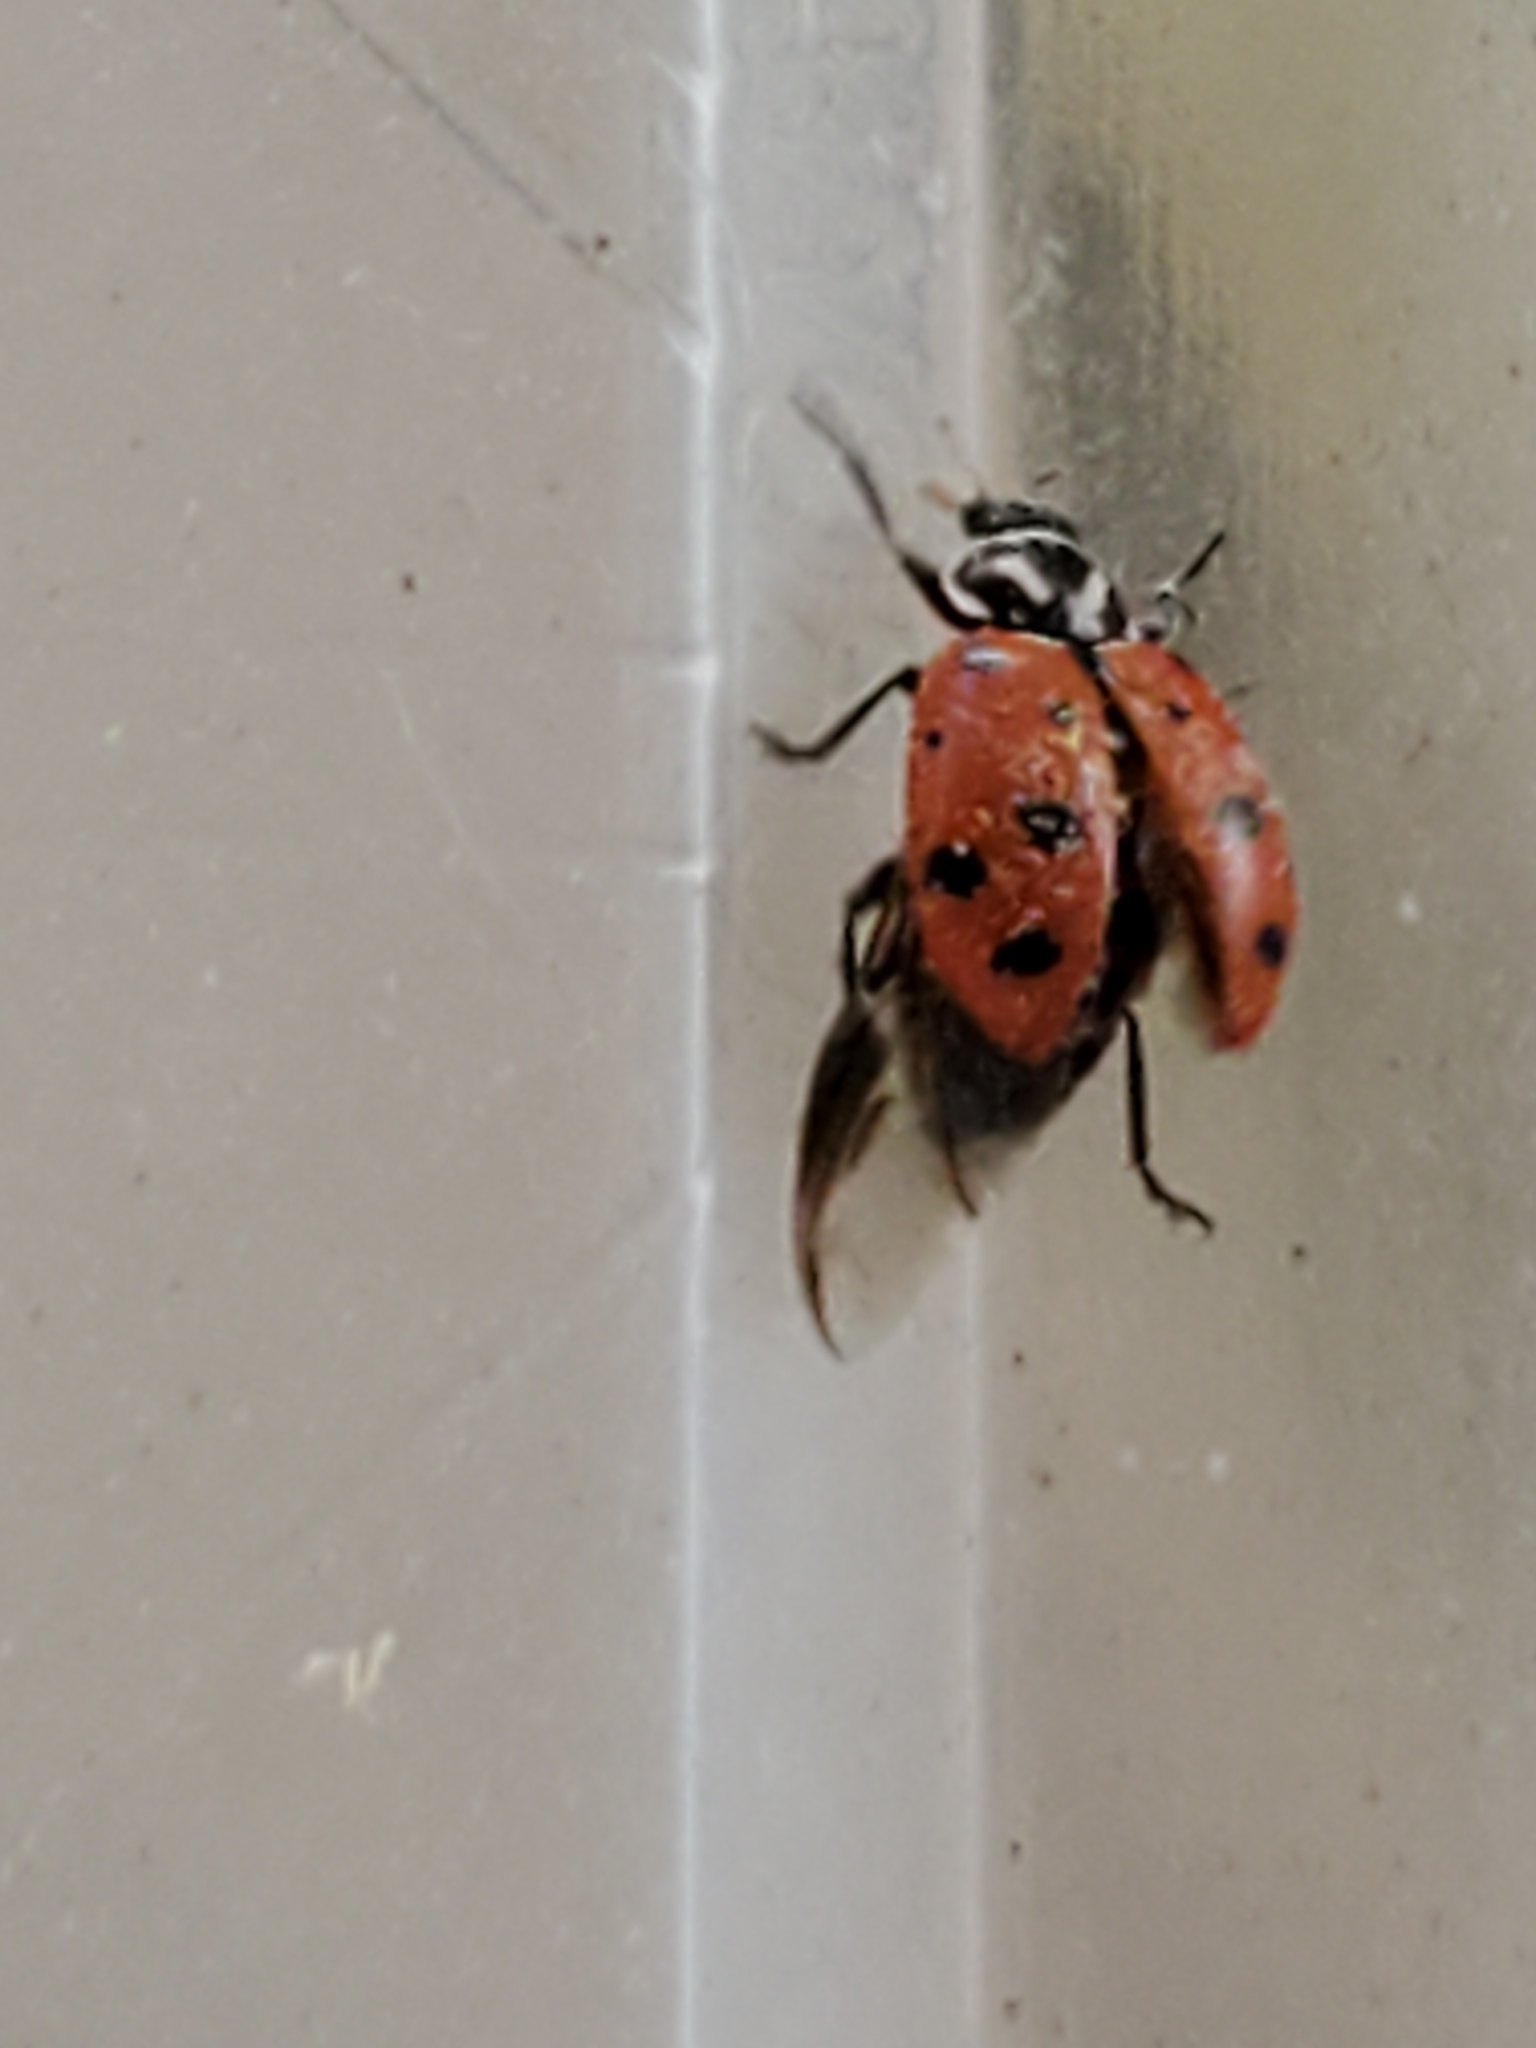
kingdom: Animalia
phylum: Arthropoda
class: Insecta
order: Coleoptera
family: Coccinellidae
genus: Hippodamia
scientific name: Hippodamia convergens
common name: Convergent lady beetle
